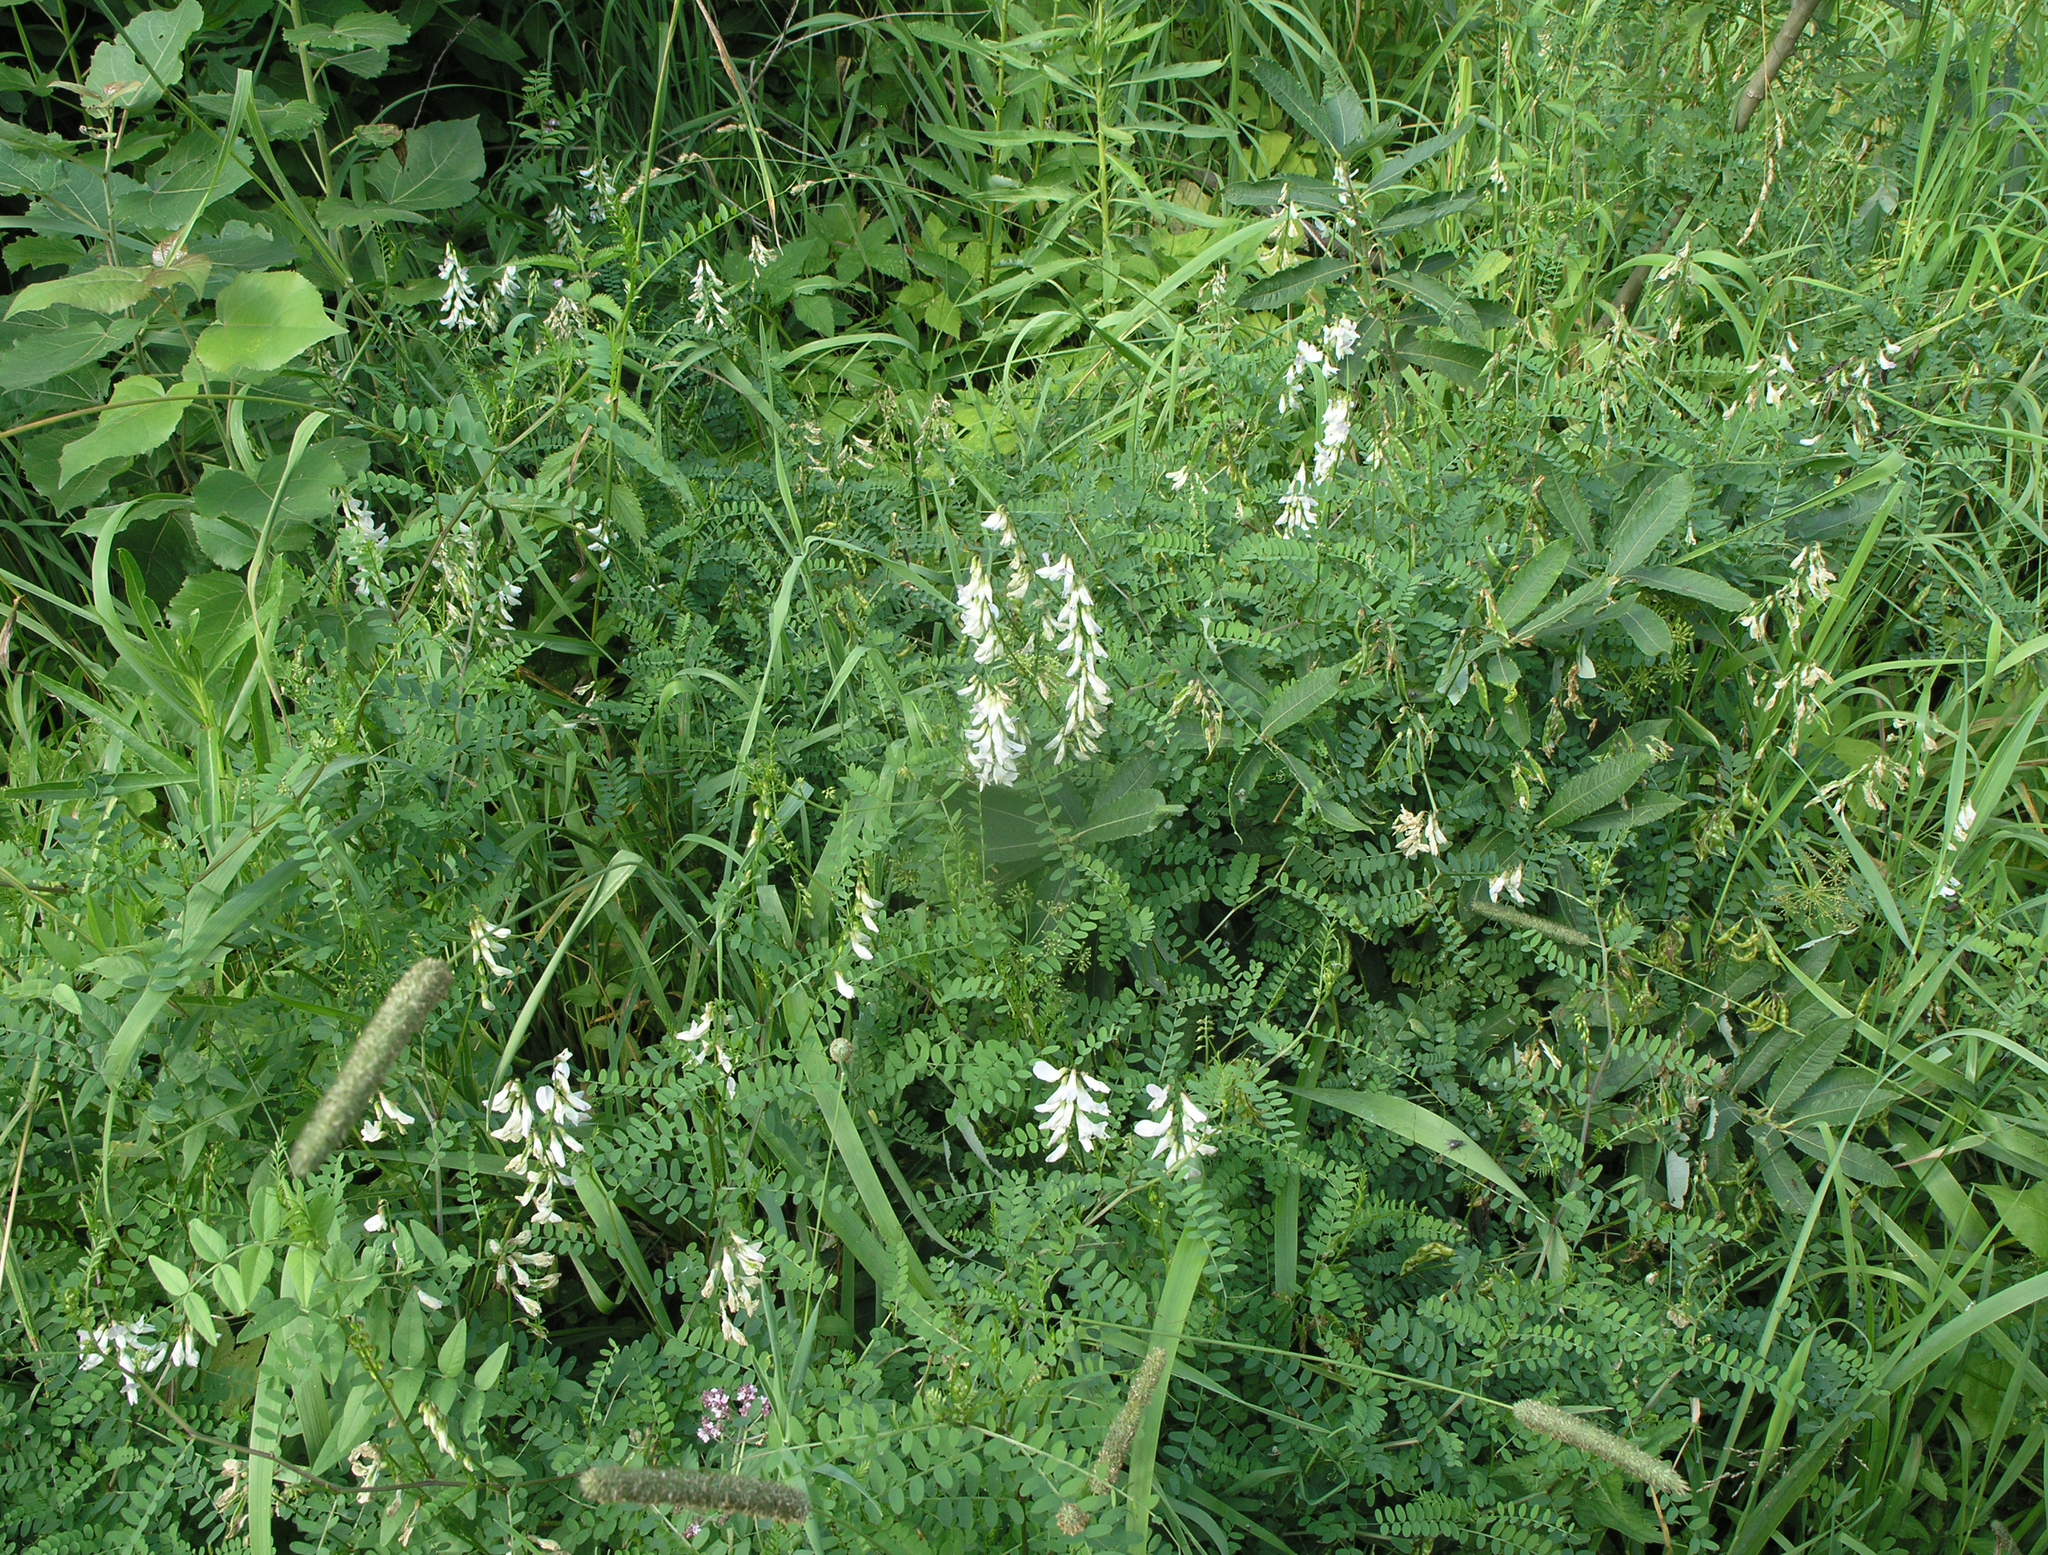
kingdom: Plantae
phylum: Tracheophyta
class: Magnoliopsida
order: Fabales
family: Fabaceae
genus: Vicia
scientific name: Vicia sylvatica
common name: Wood vetch
